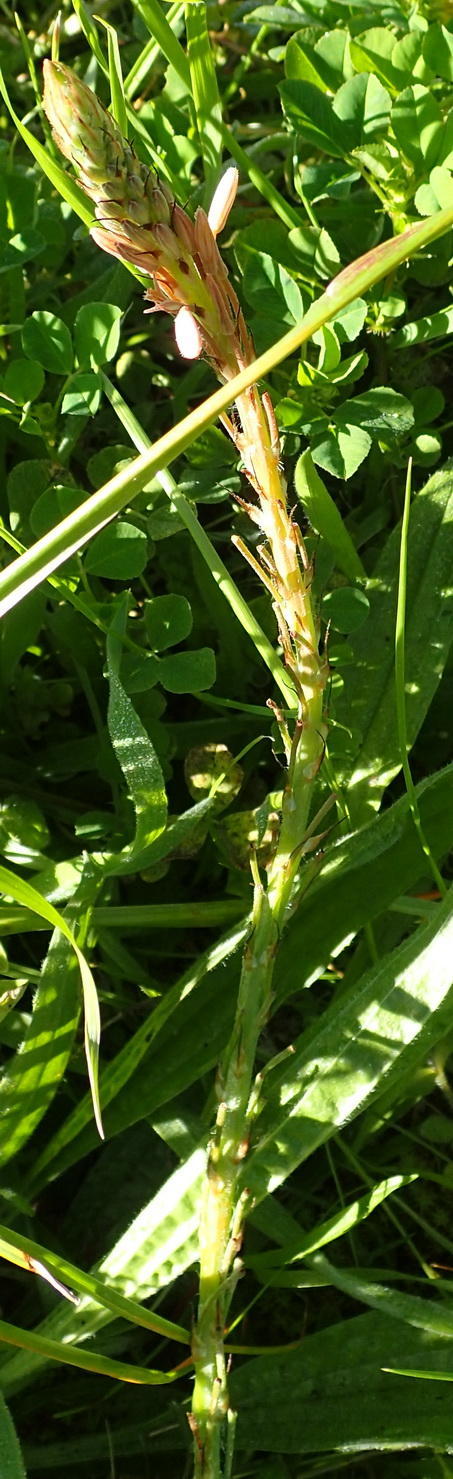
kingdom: Plantae
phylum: Tracheophyta
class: Liliopsida
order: Asparagales
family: Asphodelaceae
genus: Trachyandra
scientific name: Trachyandra ciliata
